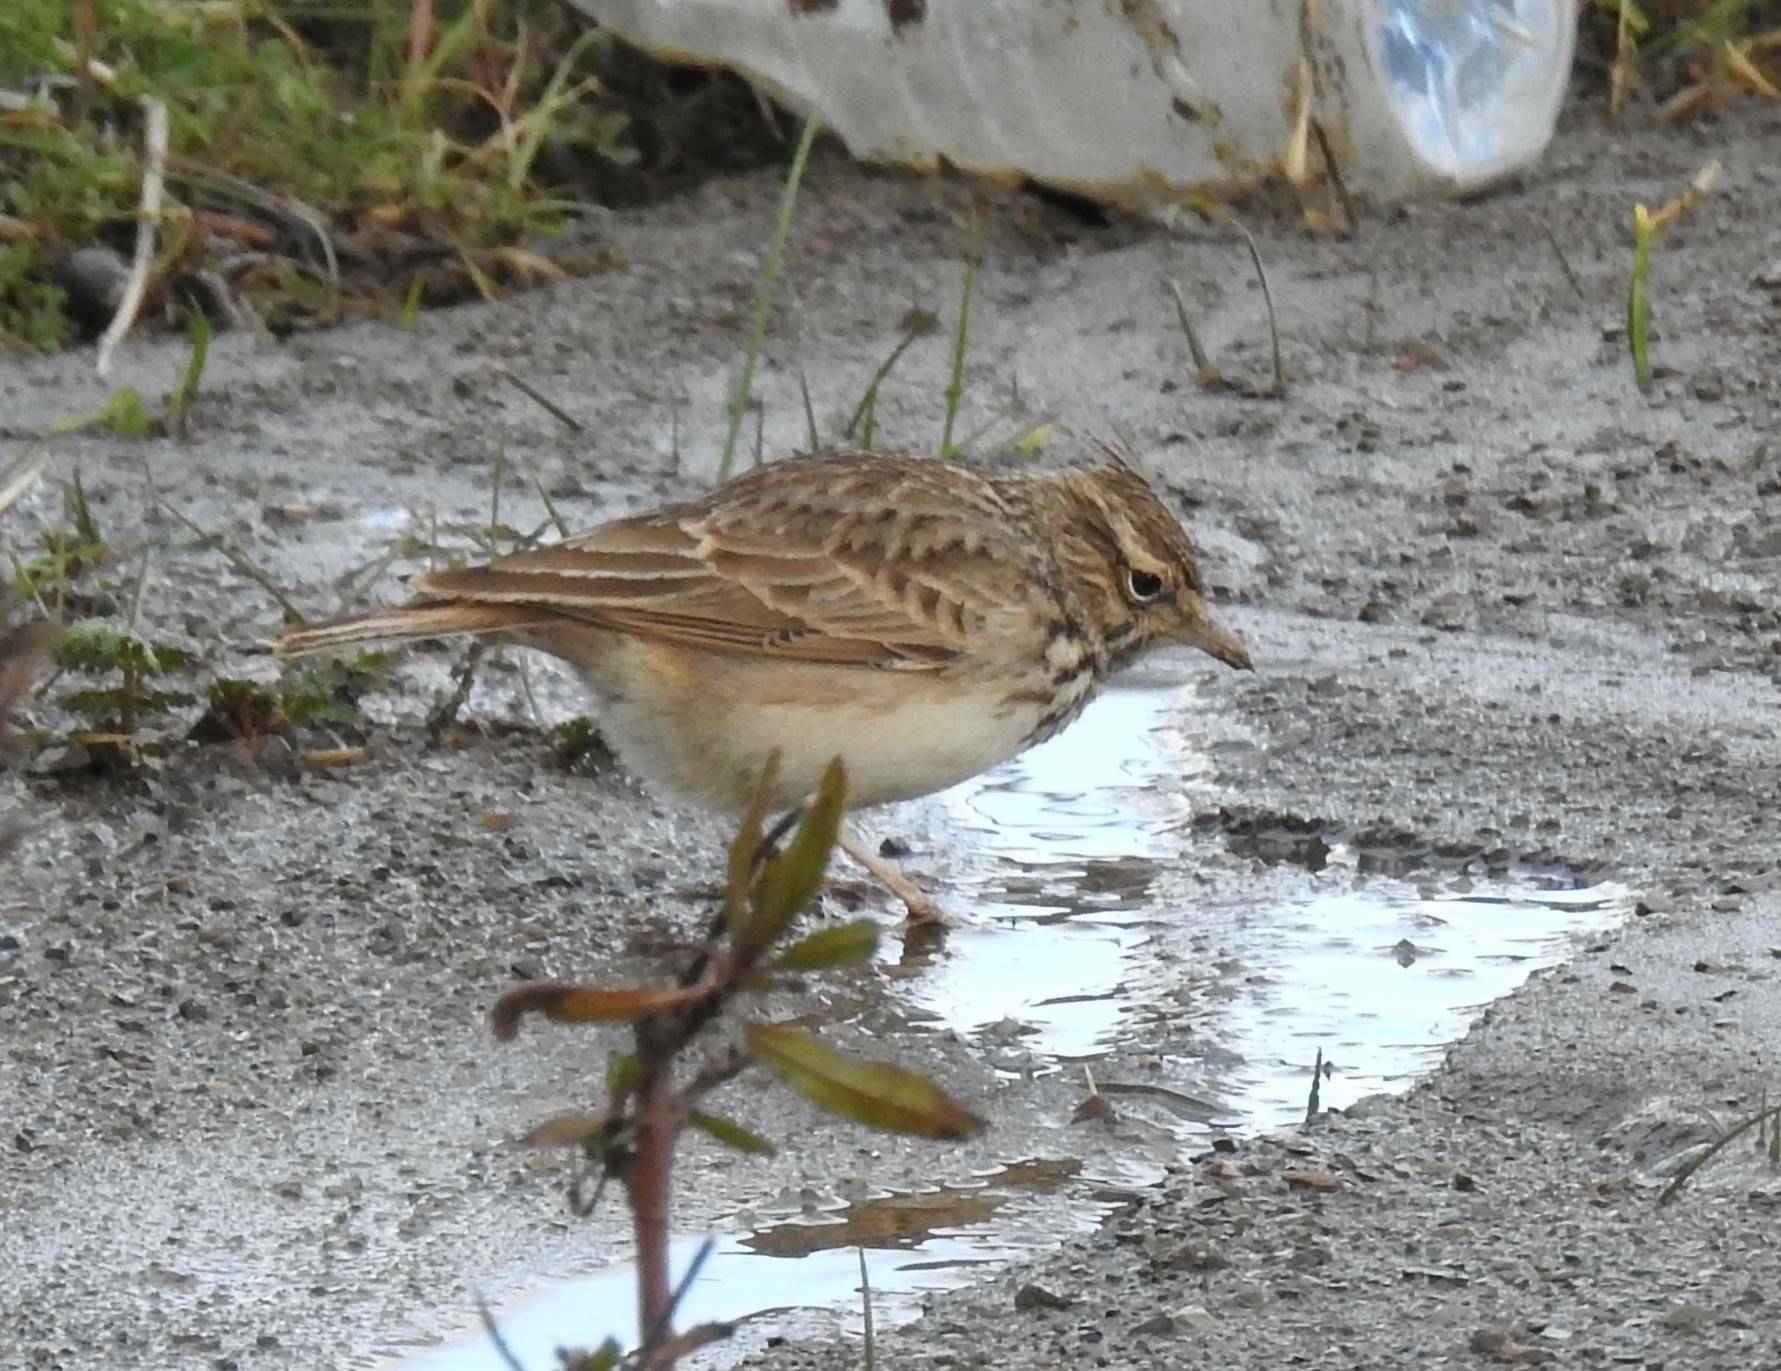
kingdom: Animalia
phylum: Chordata
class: Aves
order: Passeriformes
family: Alaudidae
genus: Galerida
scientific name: Galerida theklae
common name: Thekla lark
